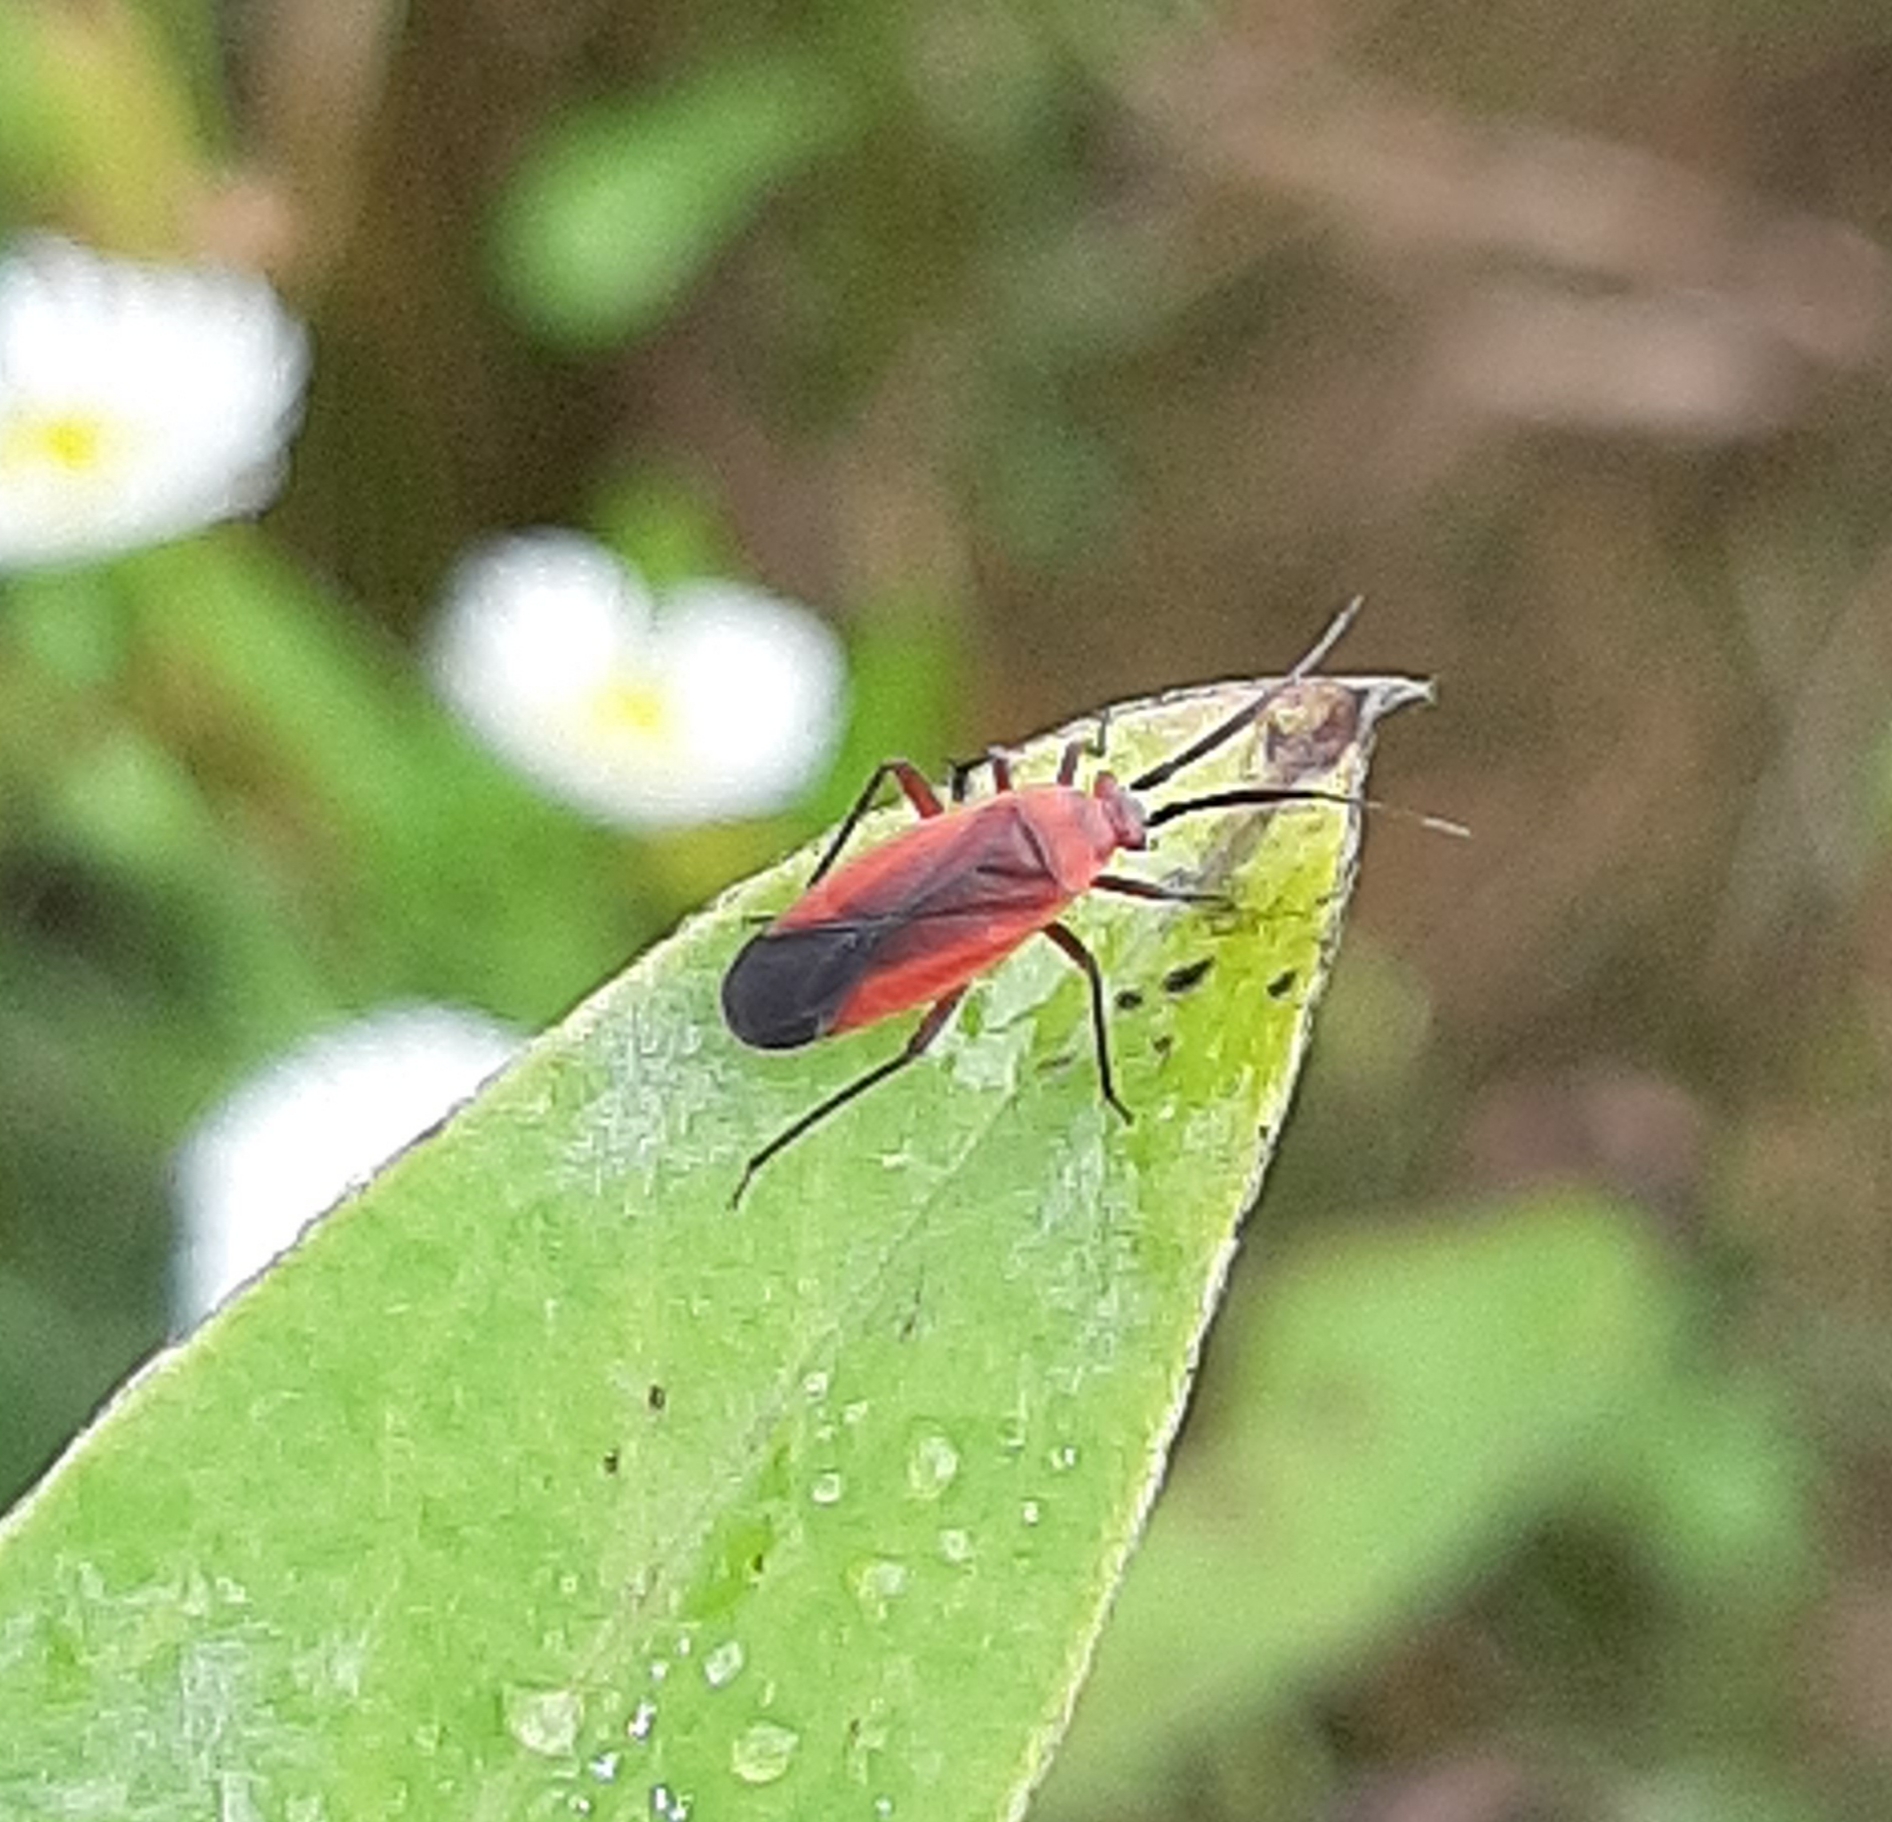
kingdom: Animalia
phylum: Arthropoda
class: Insecta
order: Hemiptera
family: Miridae
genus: Lopidea
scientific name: Lopidea instabilis
